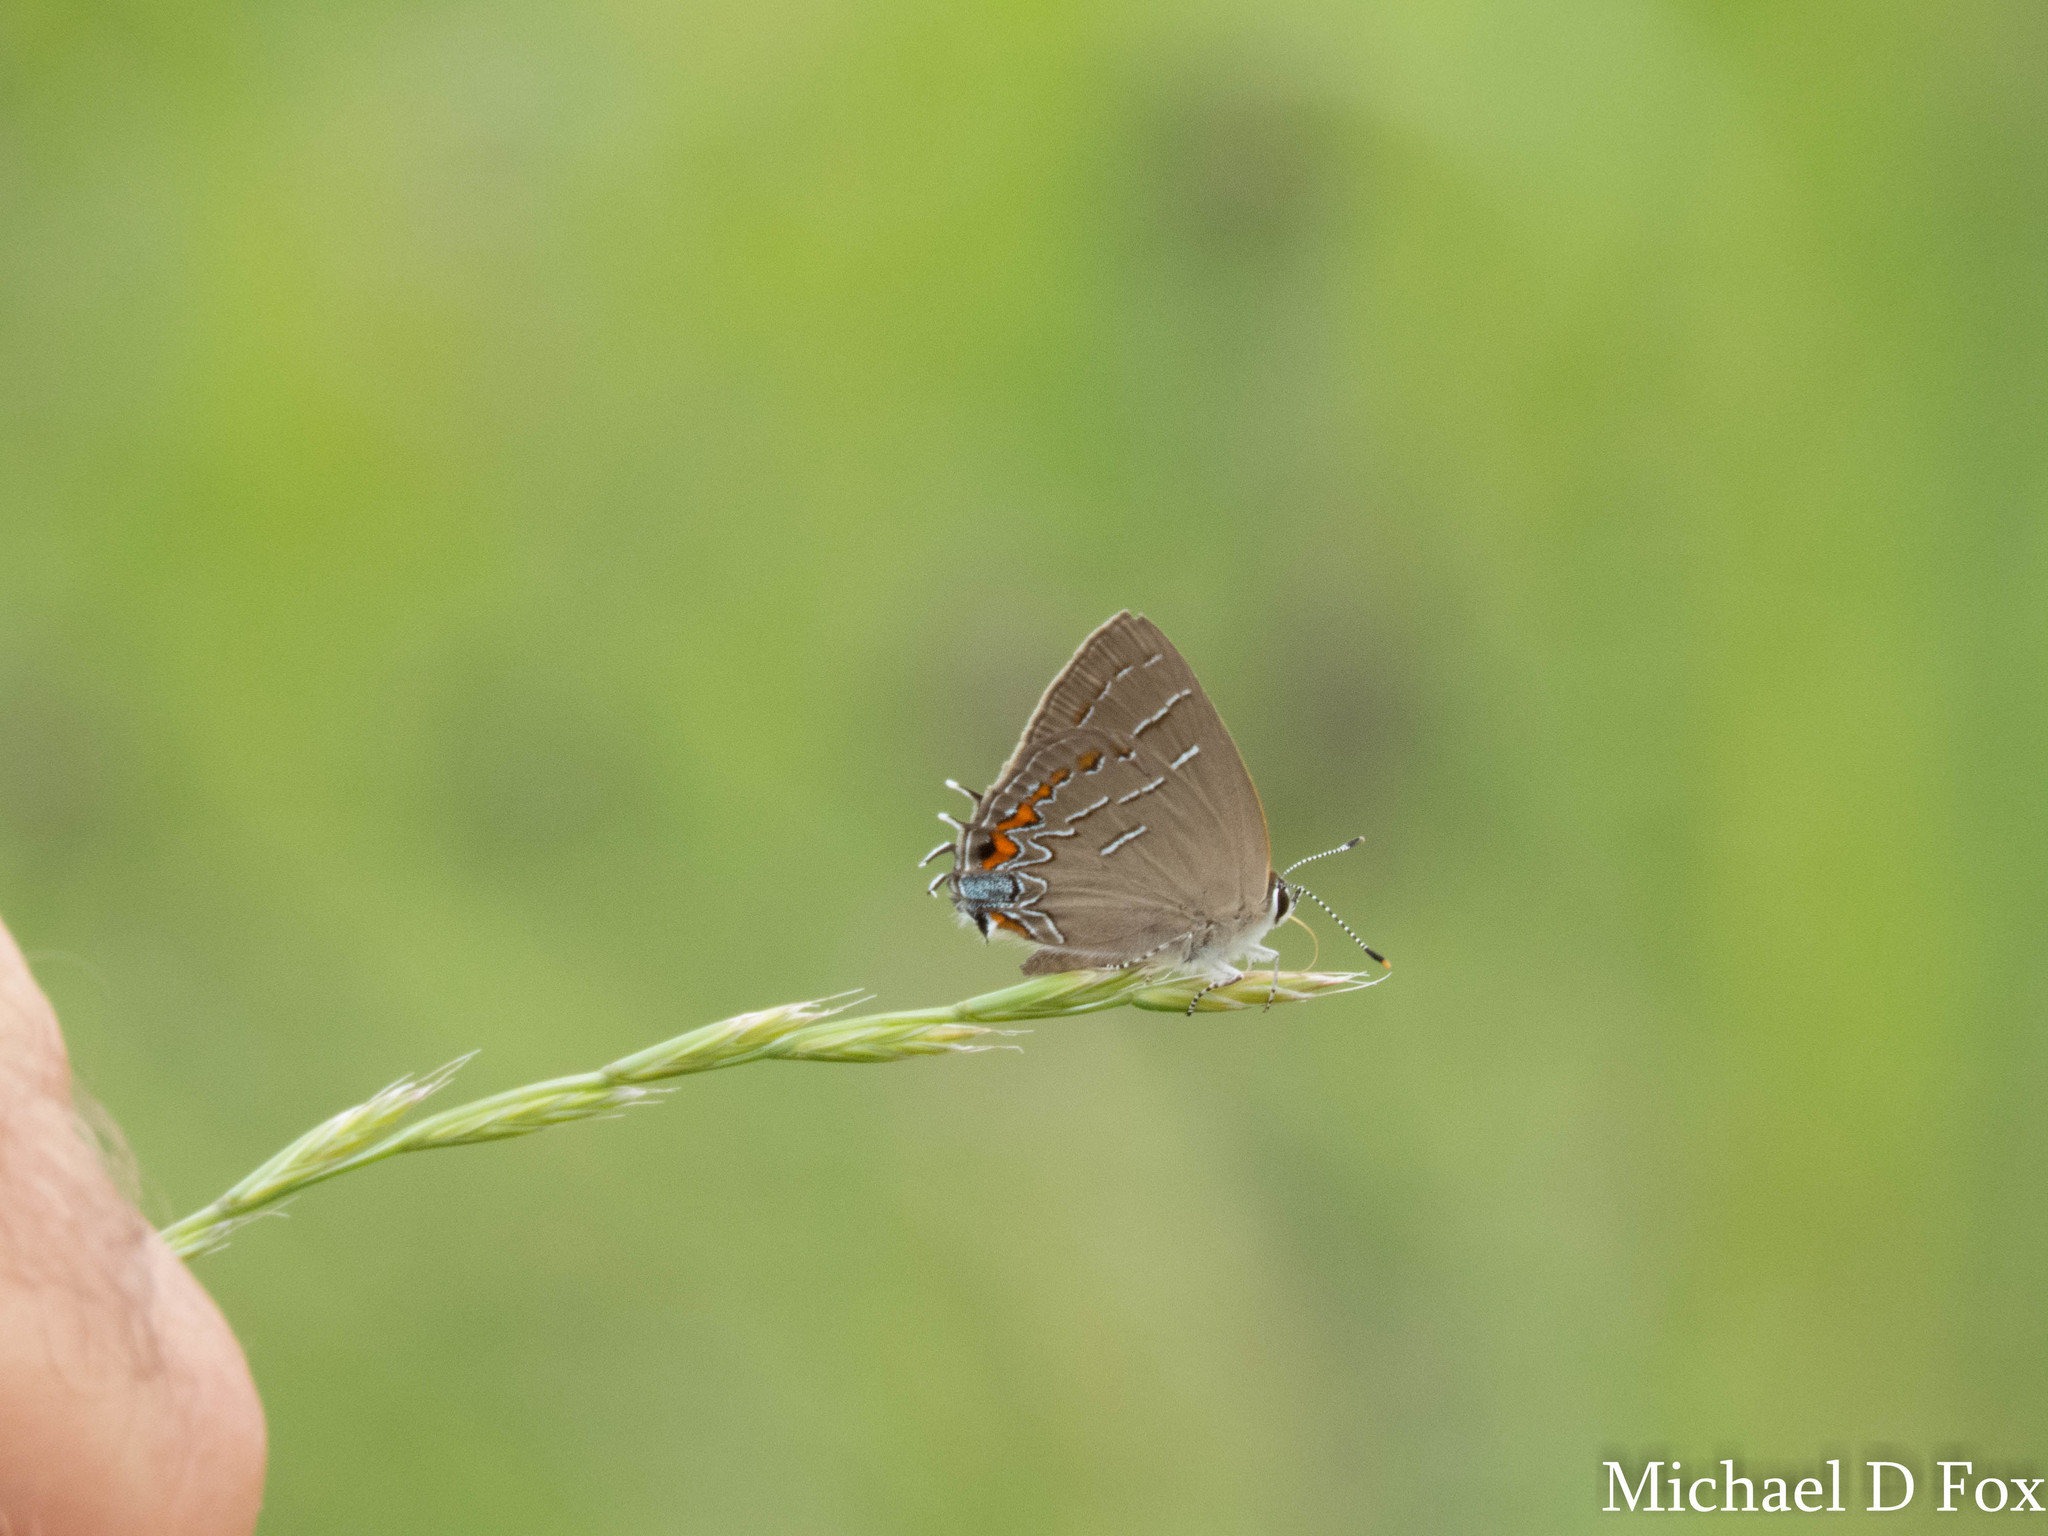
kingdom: Animalia
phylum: Arthropoda
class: Insecta
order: Lepidoptera
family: Lycaenidae
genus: Phaeostrymon
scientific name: Phaeostrymon alcestis
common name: Soapberry hairstreak
